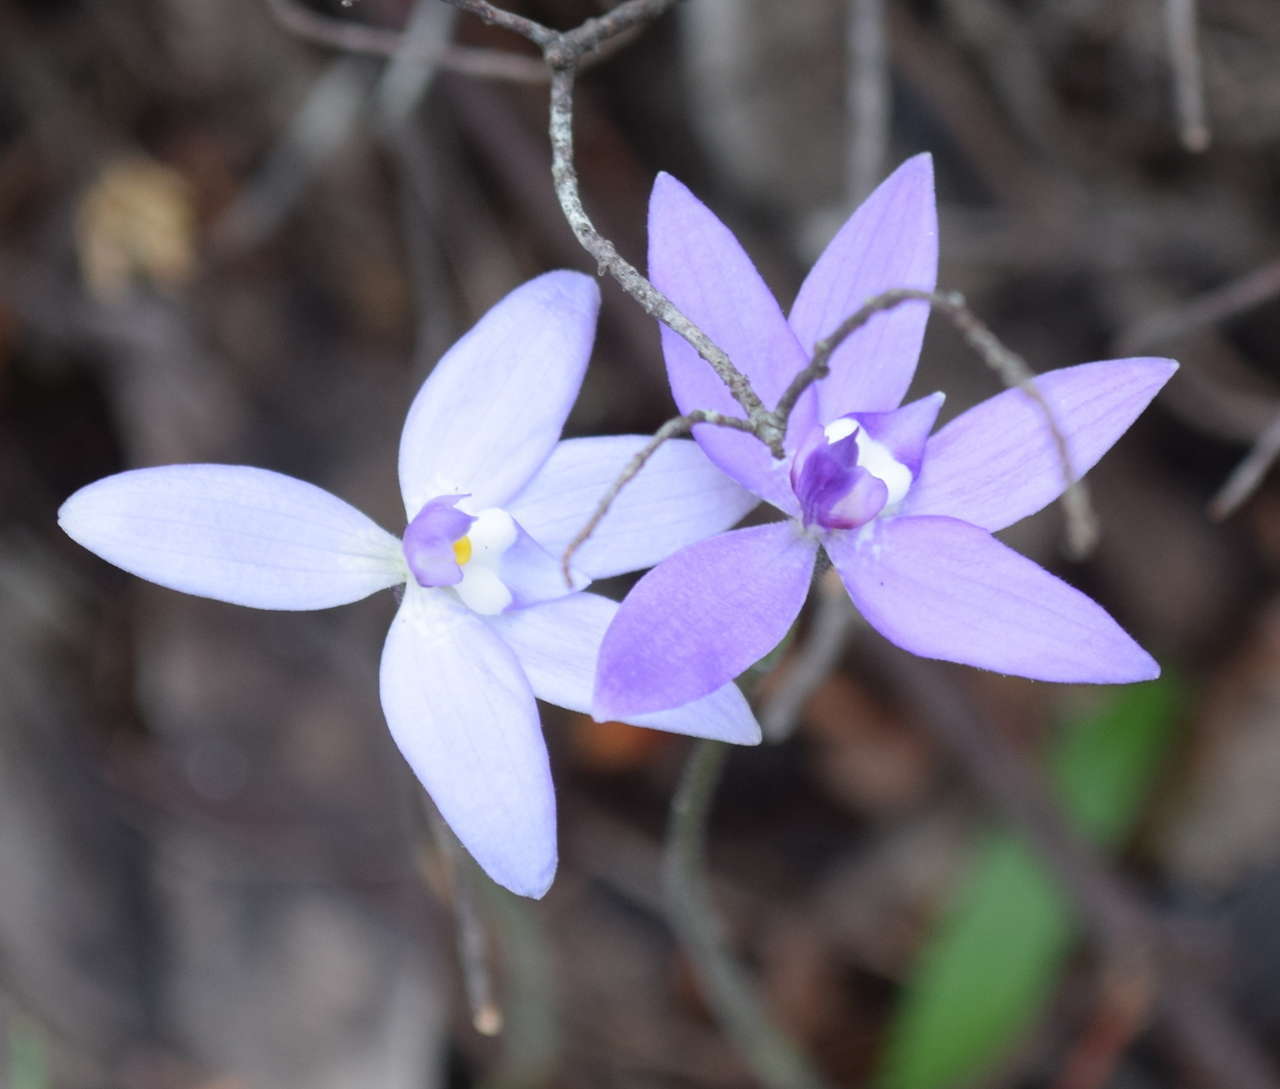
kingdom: Plantae
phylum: Tracheophyta
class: Liliopsida
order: Asparagales
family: Orchidaceae
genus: Caladenia
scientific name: Caladenia major
